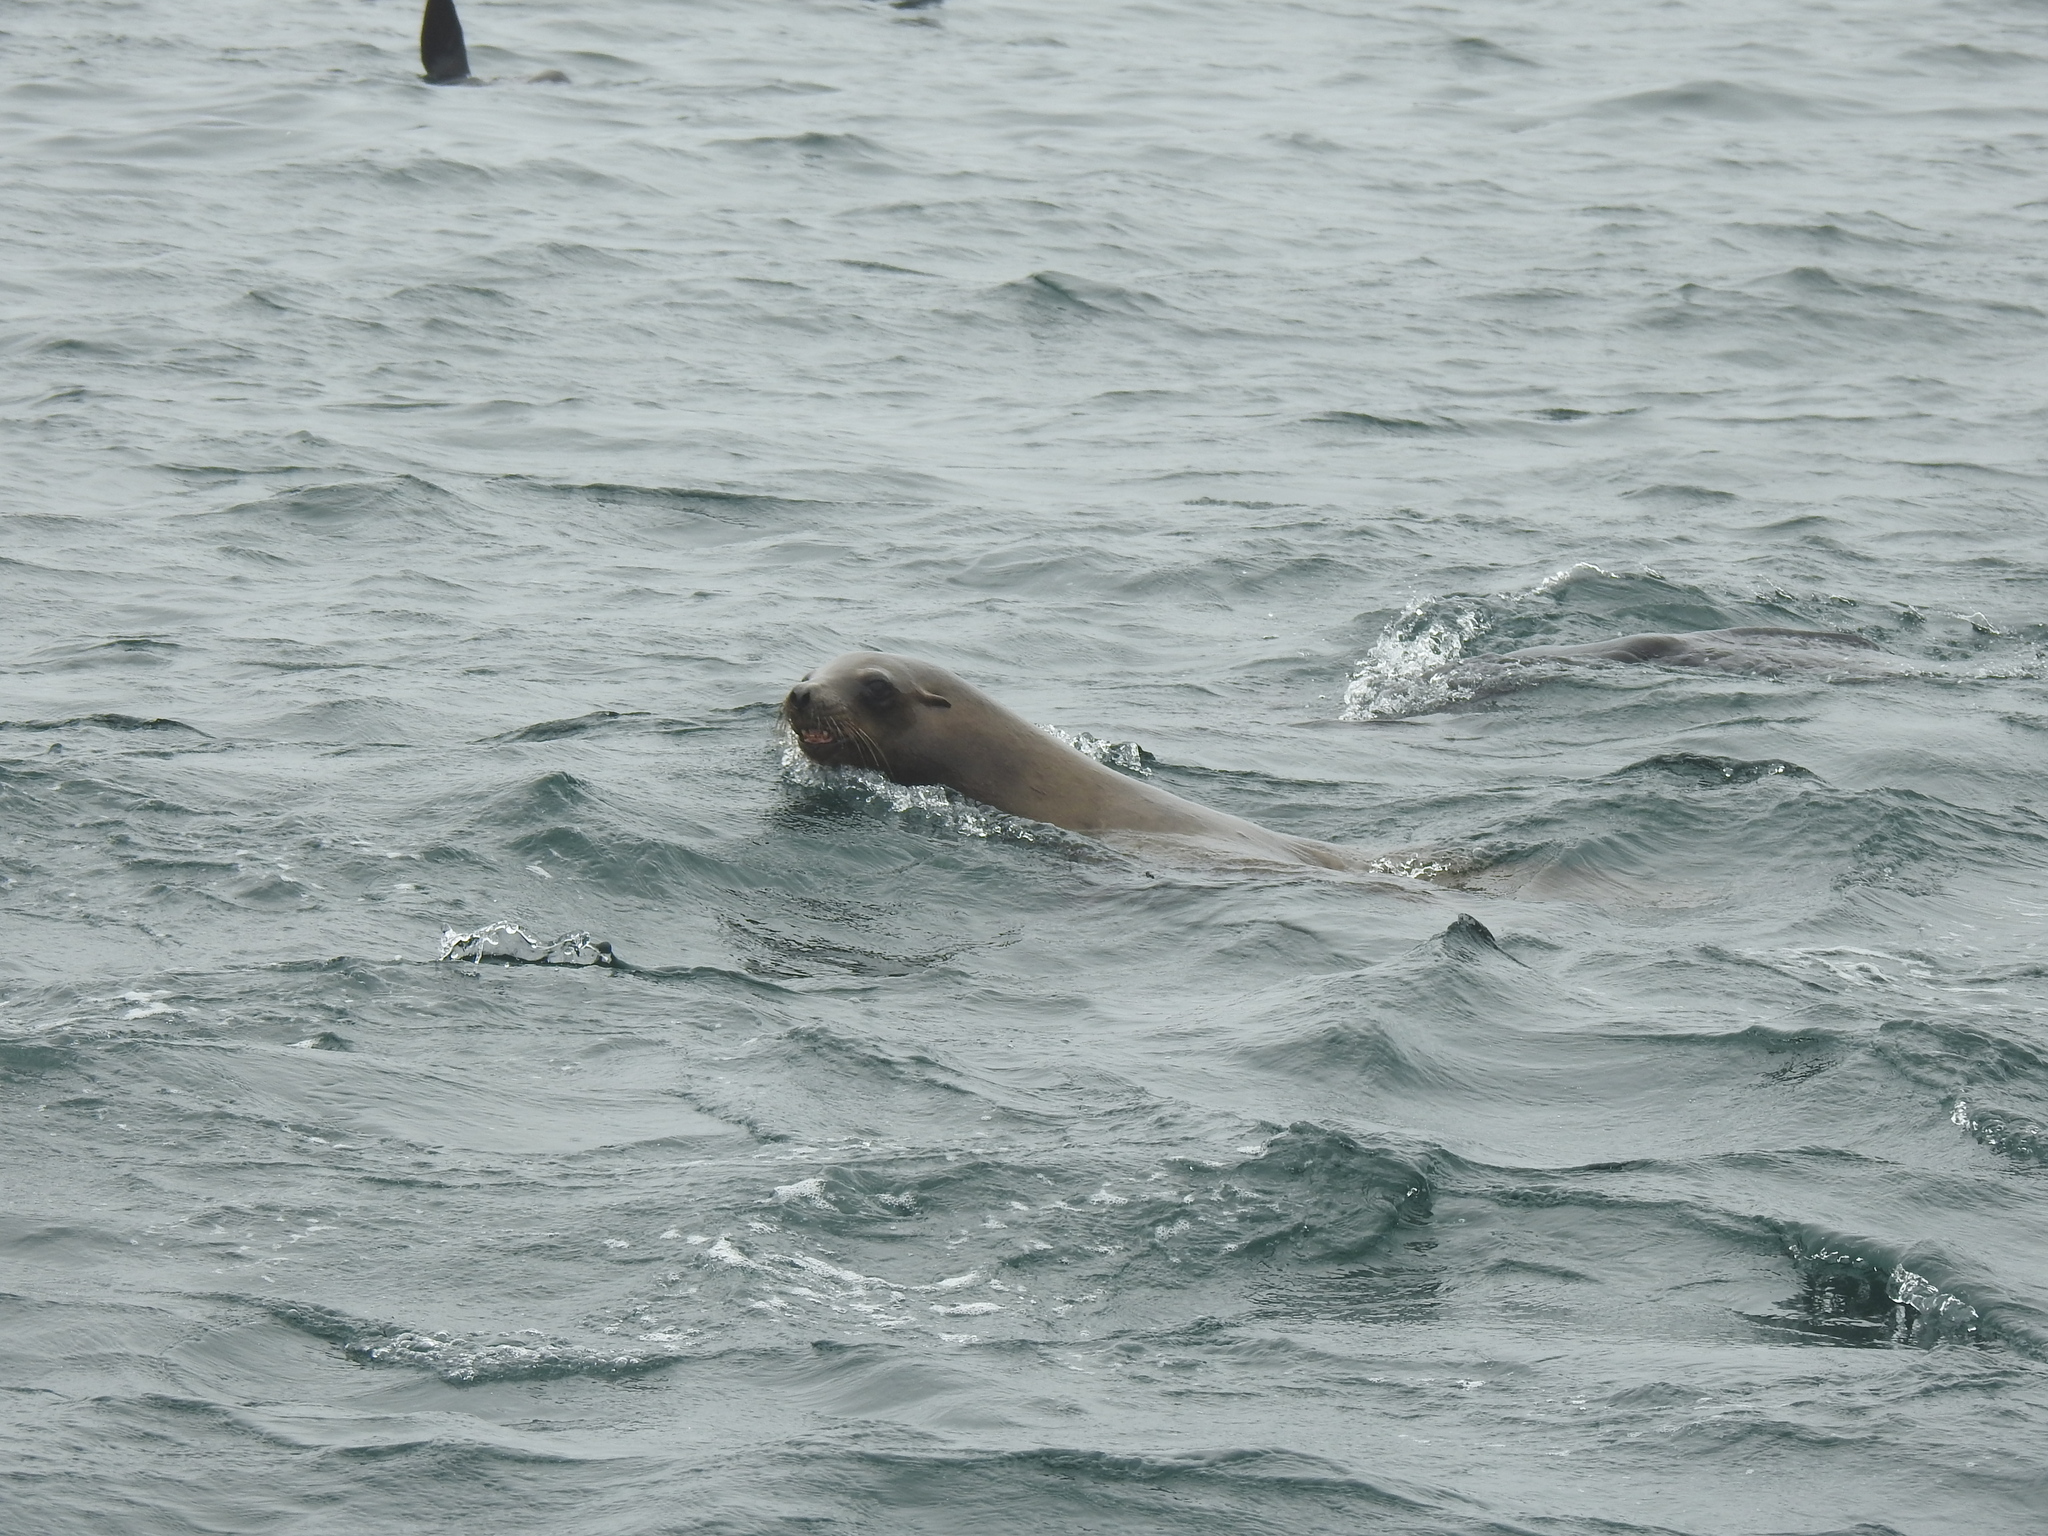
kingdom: Animalia
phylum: Chordata
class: Mammalia
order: Carnivora
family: Otariidae
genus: Zalophus
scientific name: Zalophus californianus
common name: California sea lion
